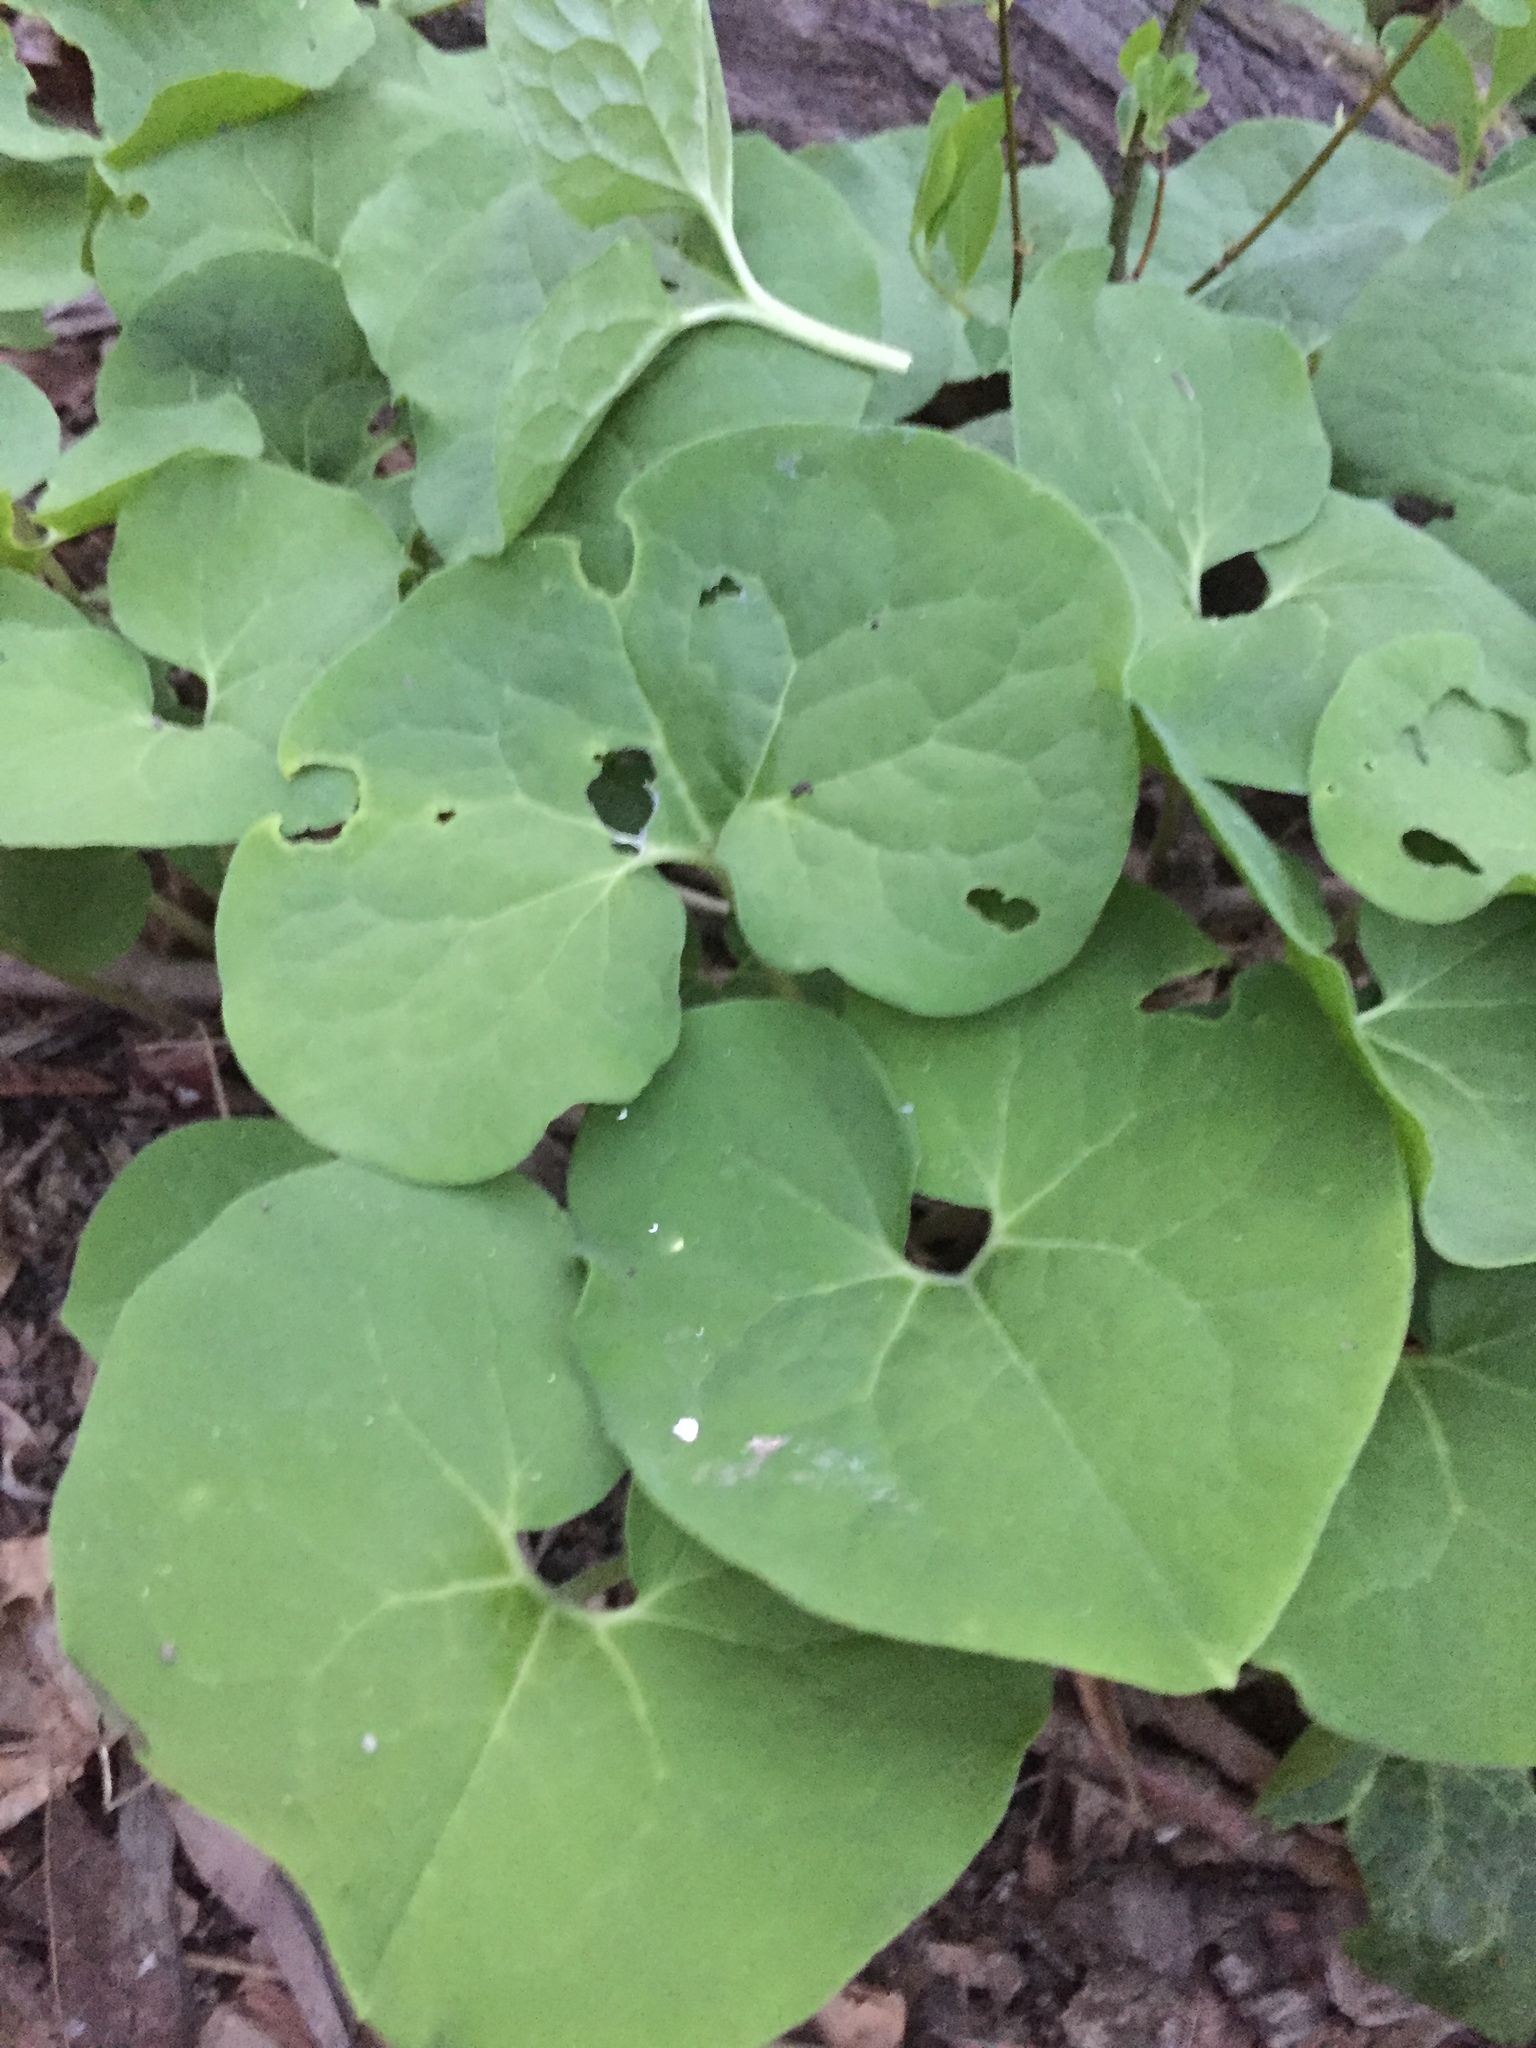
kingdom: Plantae
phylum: Tracheophyta
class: Magnoliopsida
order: Piperales
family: Aristolochiaceae
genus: Asarum
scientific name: Asarum canadense
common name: Wild ginger
